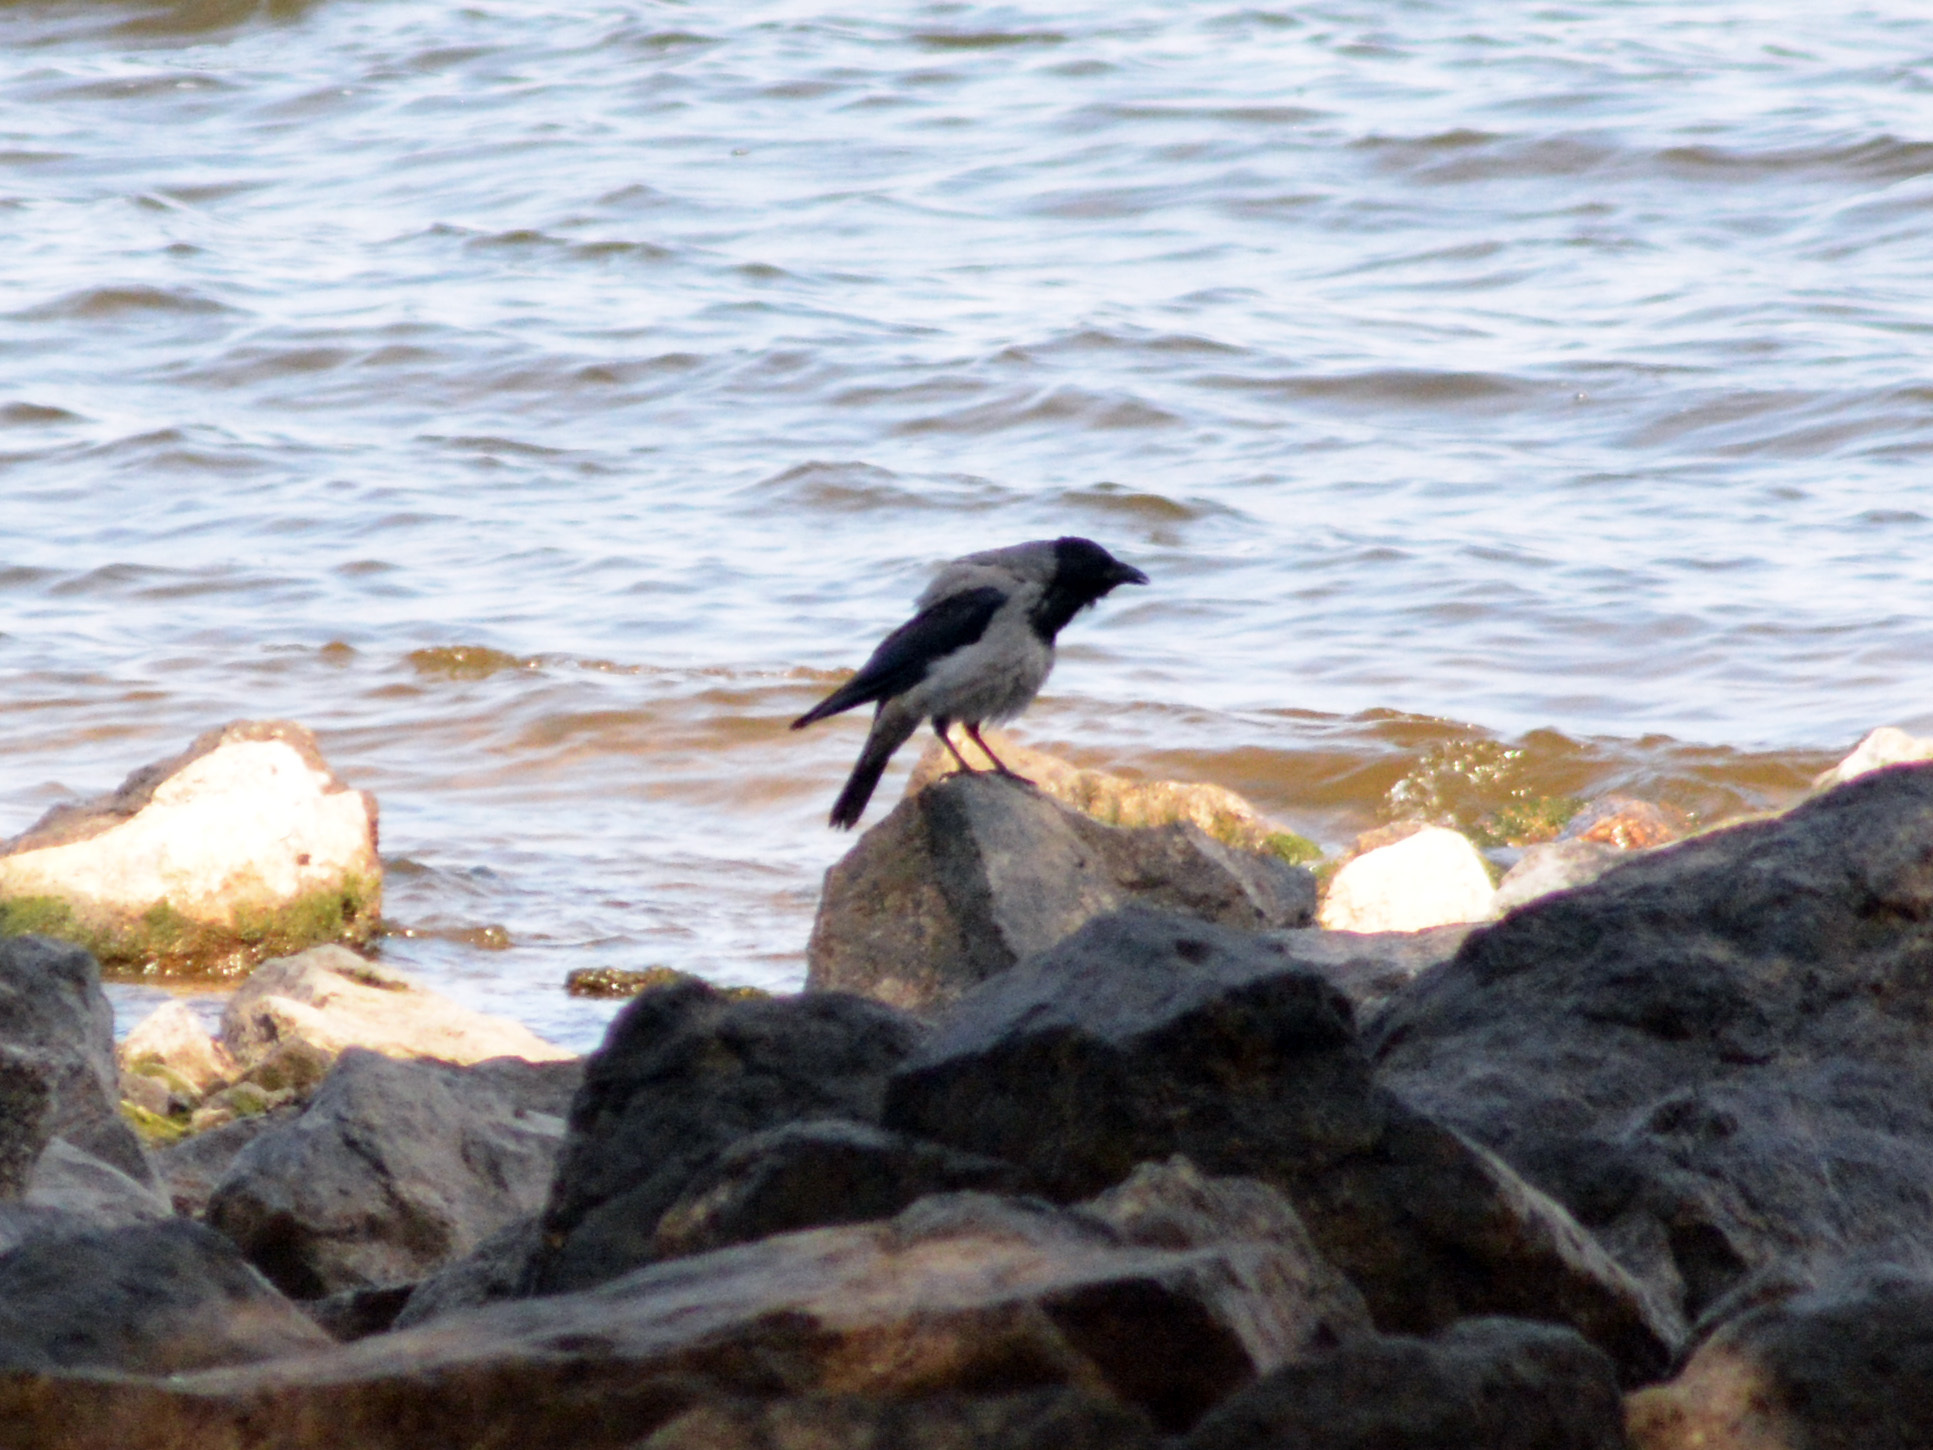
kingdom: Animalia
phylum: Chordata
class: Aves
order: Passeriformes
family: Corvidae
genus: Corvus
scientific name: Corvus cornix
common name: Hooded crow
